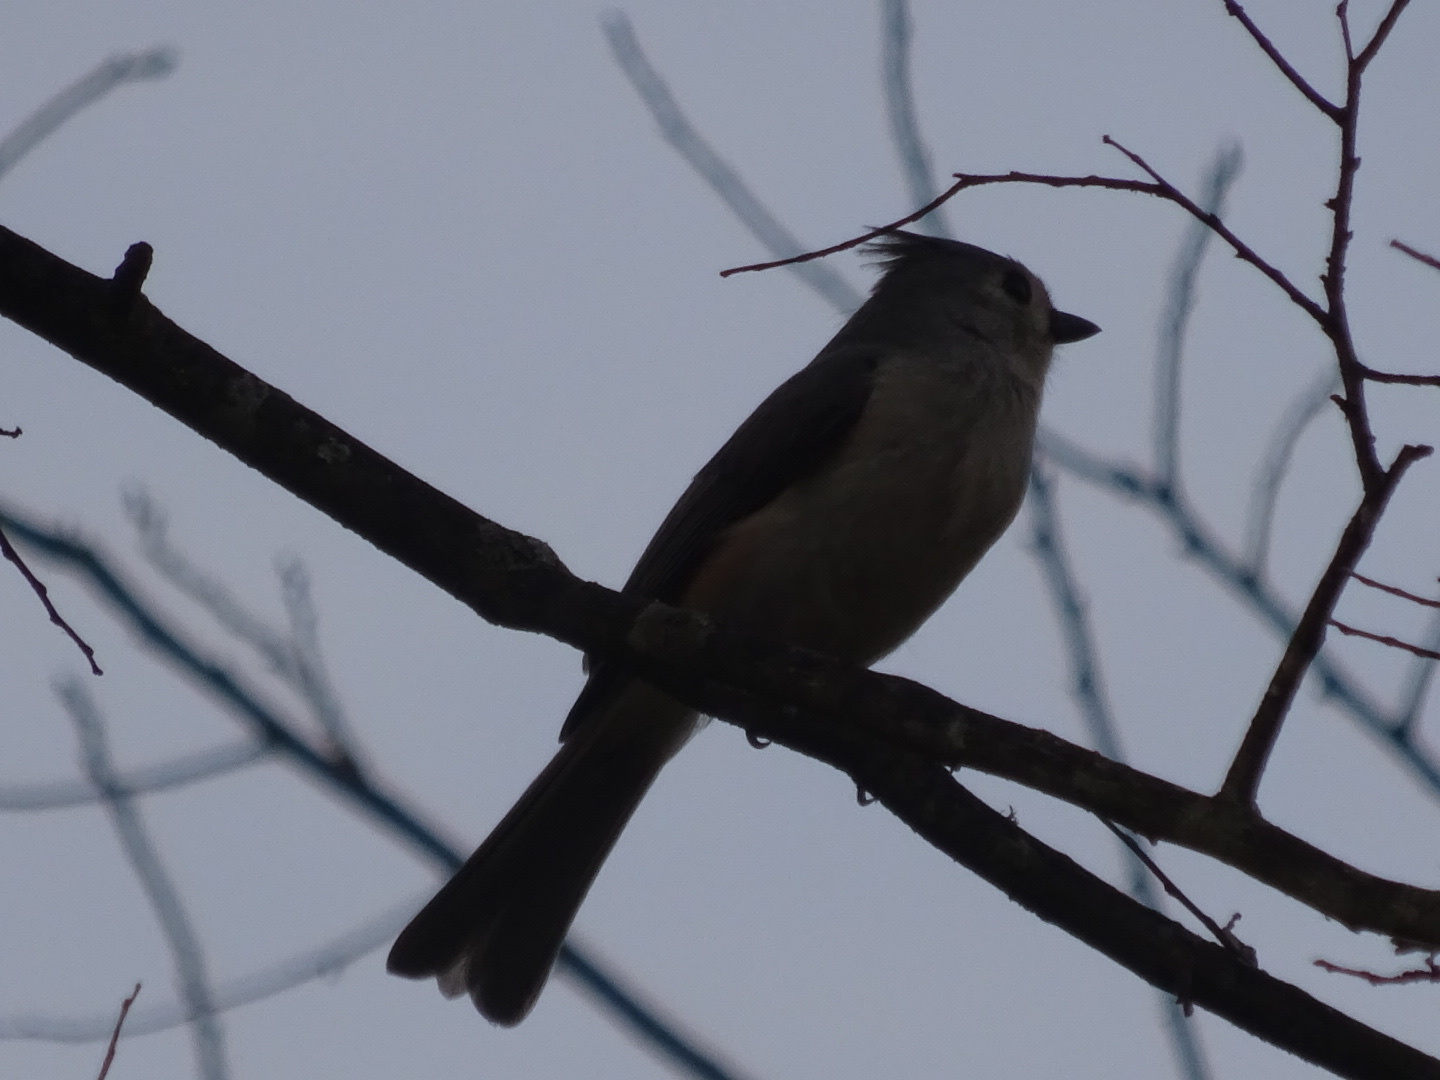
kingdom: Animalia
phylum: Chordata
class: Aves
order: Passeriformes
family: Paridae
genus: Baeolophus
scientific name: Baeolophus bicolor
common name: Tufted titmouse
